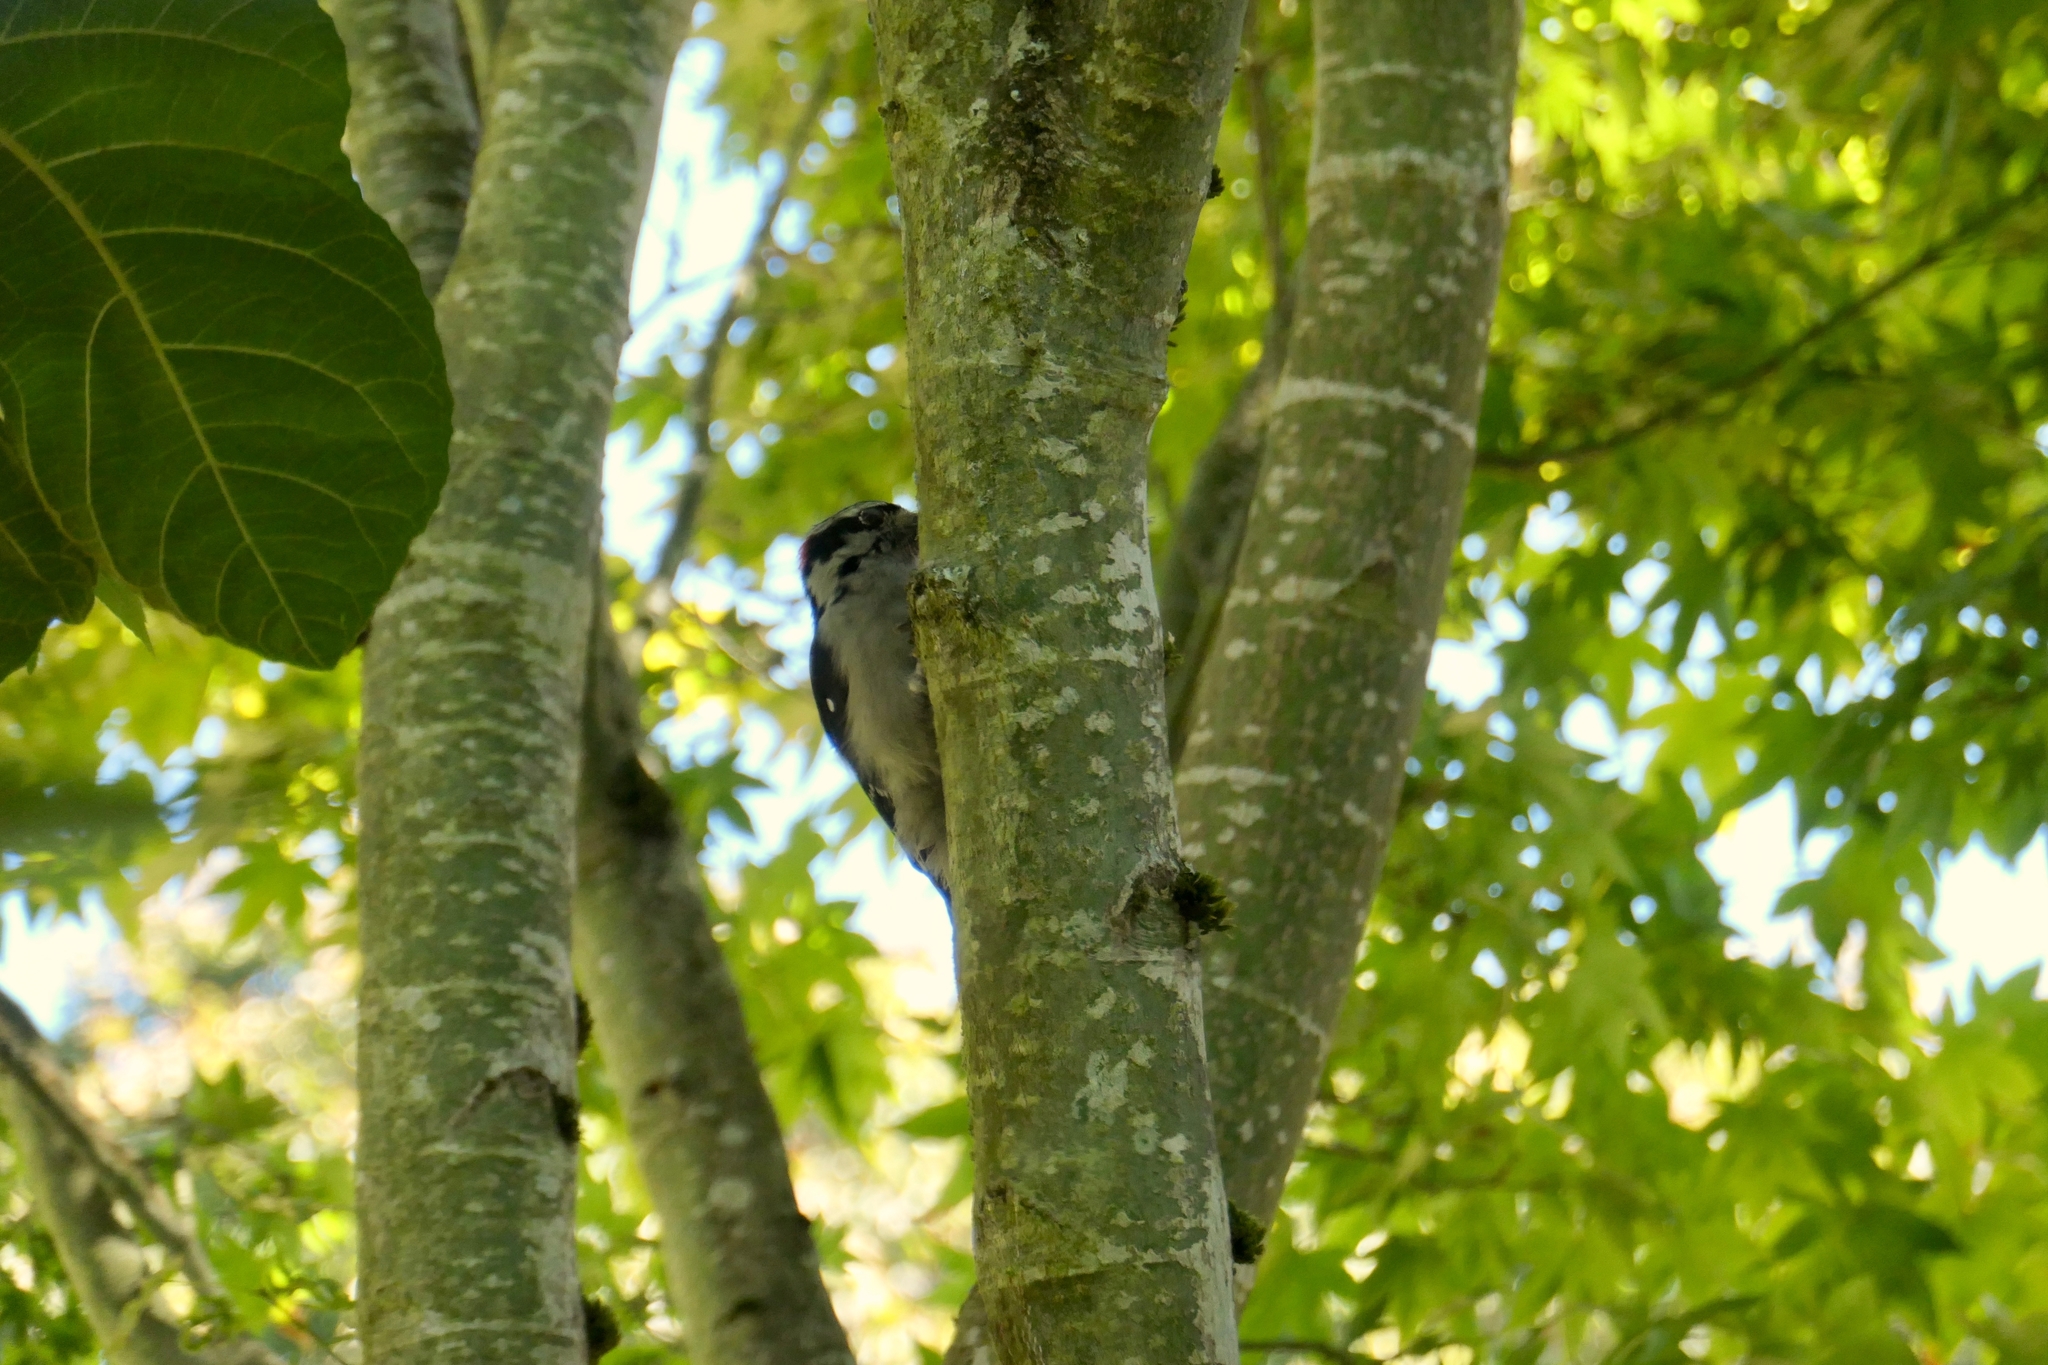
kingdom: Animalia
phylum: Chordata
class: Aves
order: Piciformes
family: Picidae
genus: Dryobates
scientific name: Dryobates pubescens
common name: Downy woodpecker
